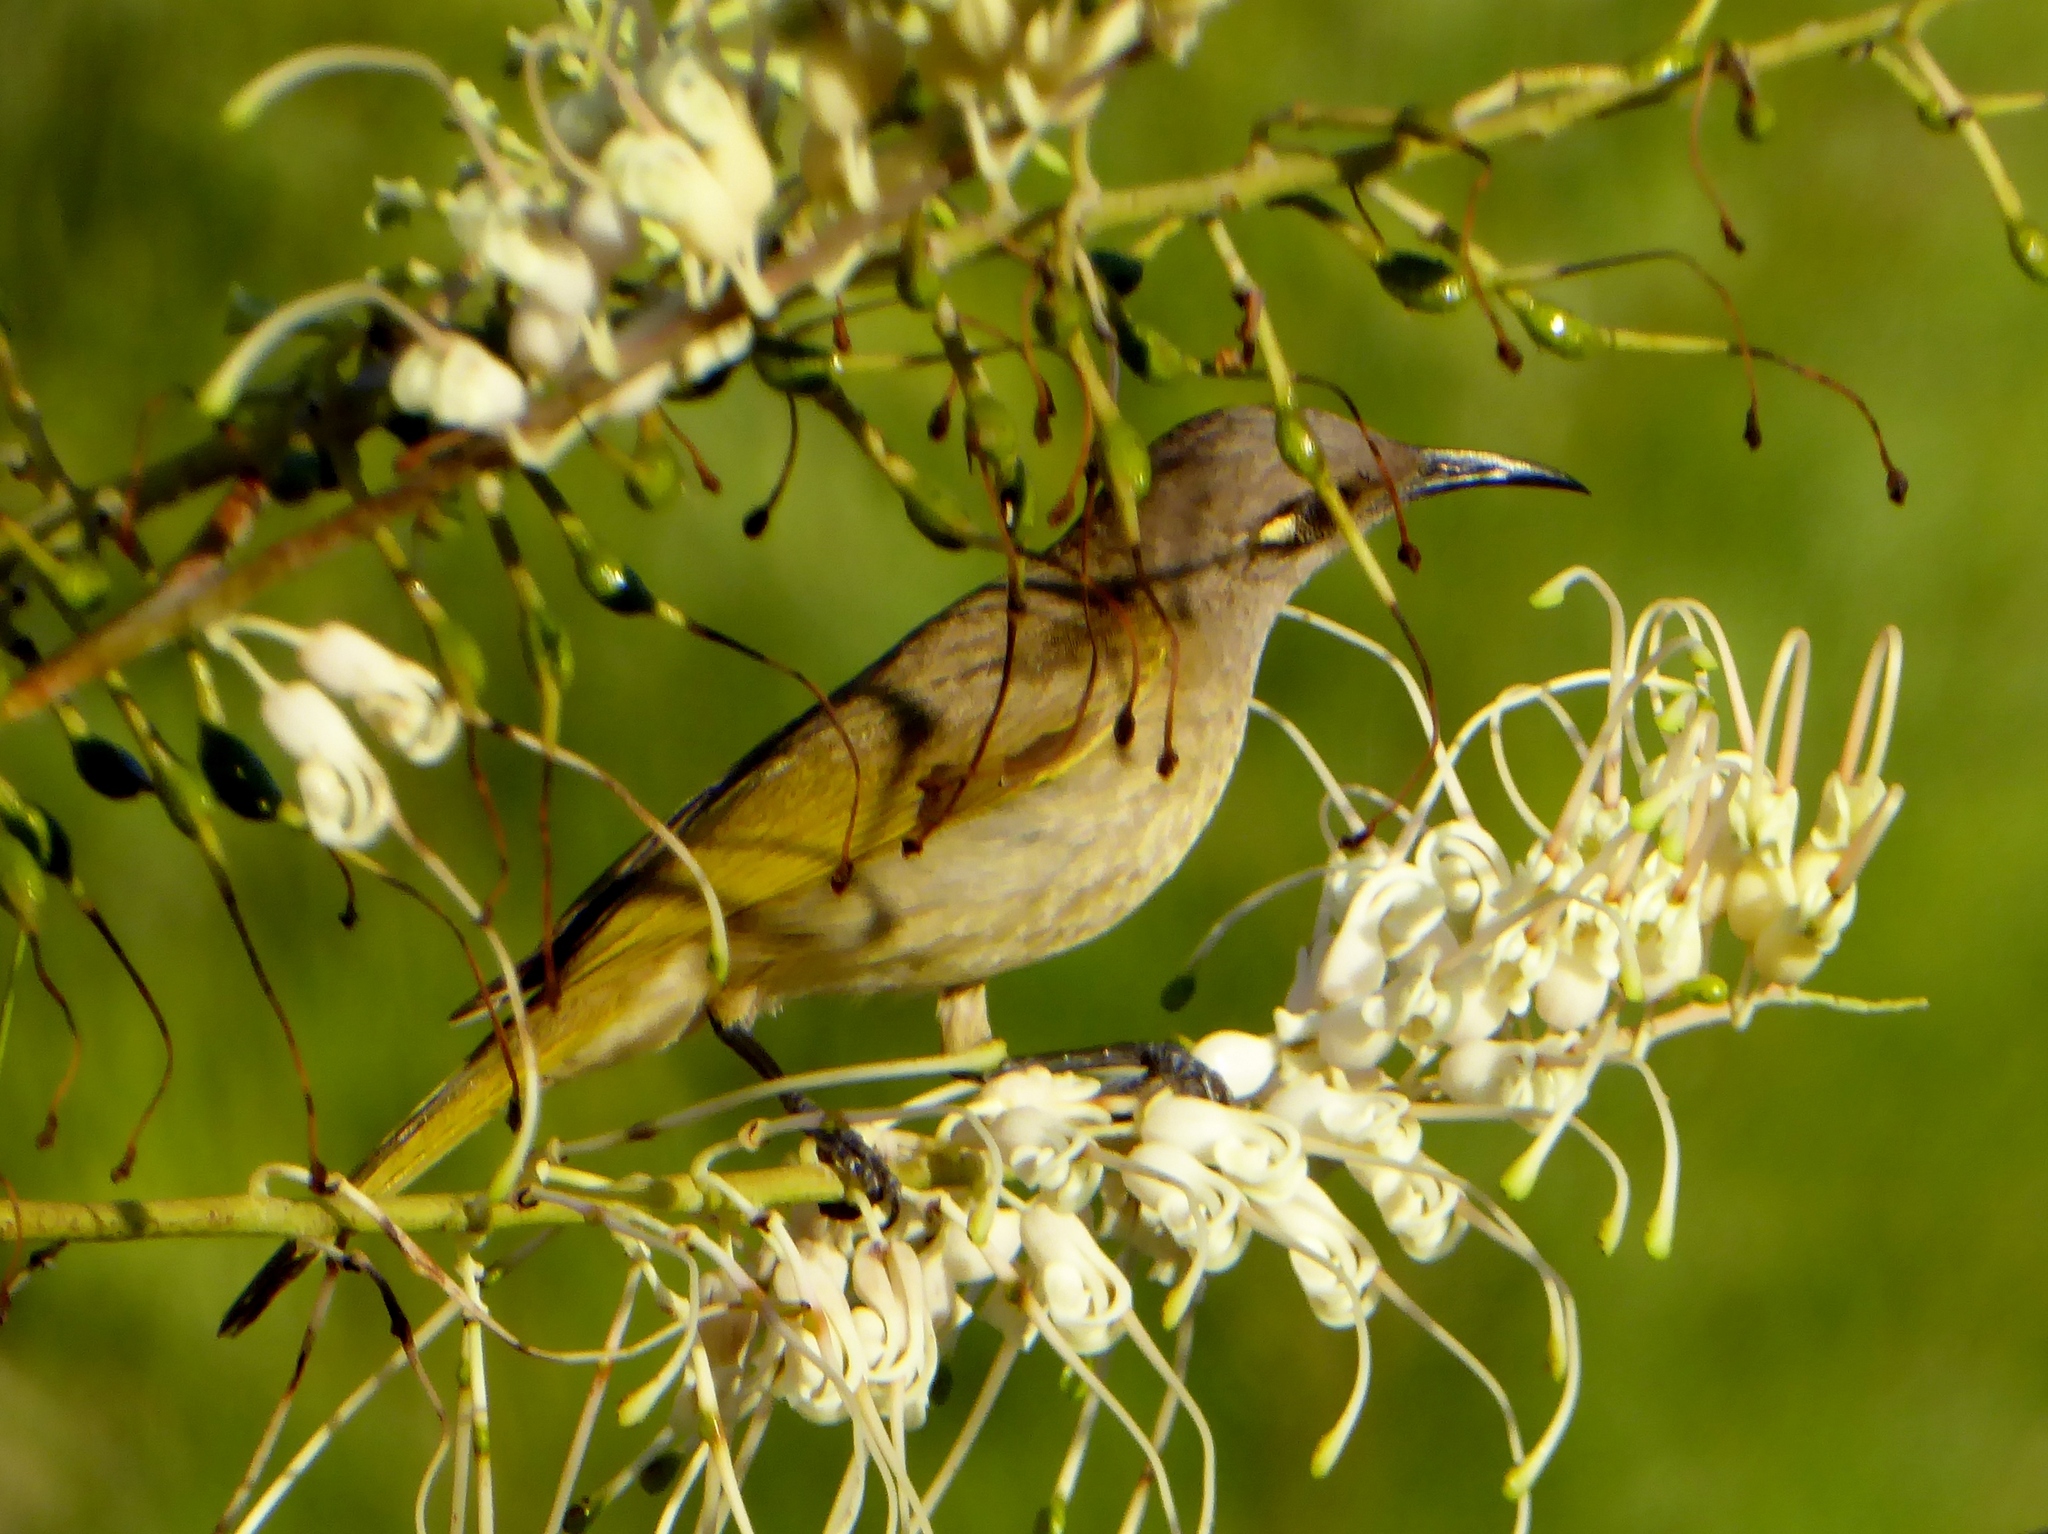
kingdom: Animalia
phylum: Chordata
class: Aves
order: Passeriformes
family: Meliphagidae
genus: Lichmera
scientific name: Lichmera indistincta
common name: Brown honeyeater
